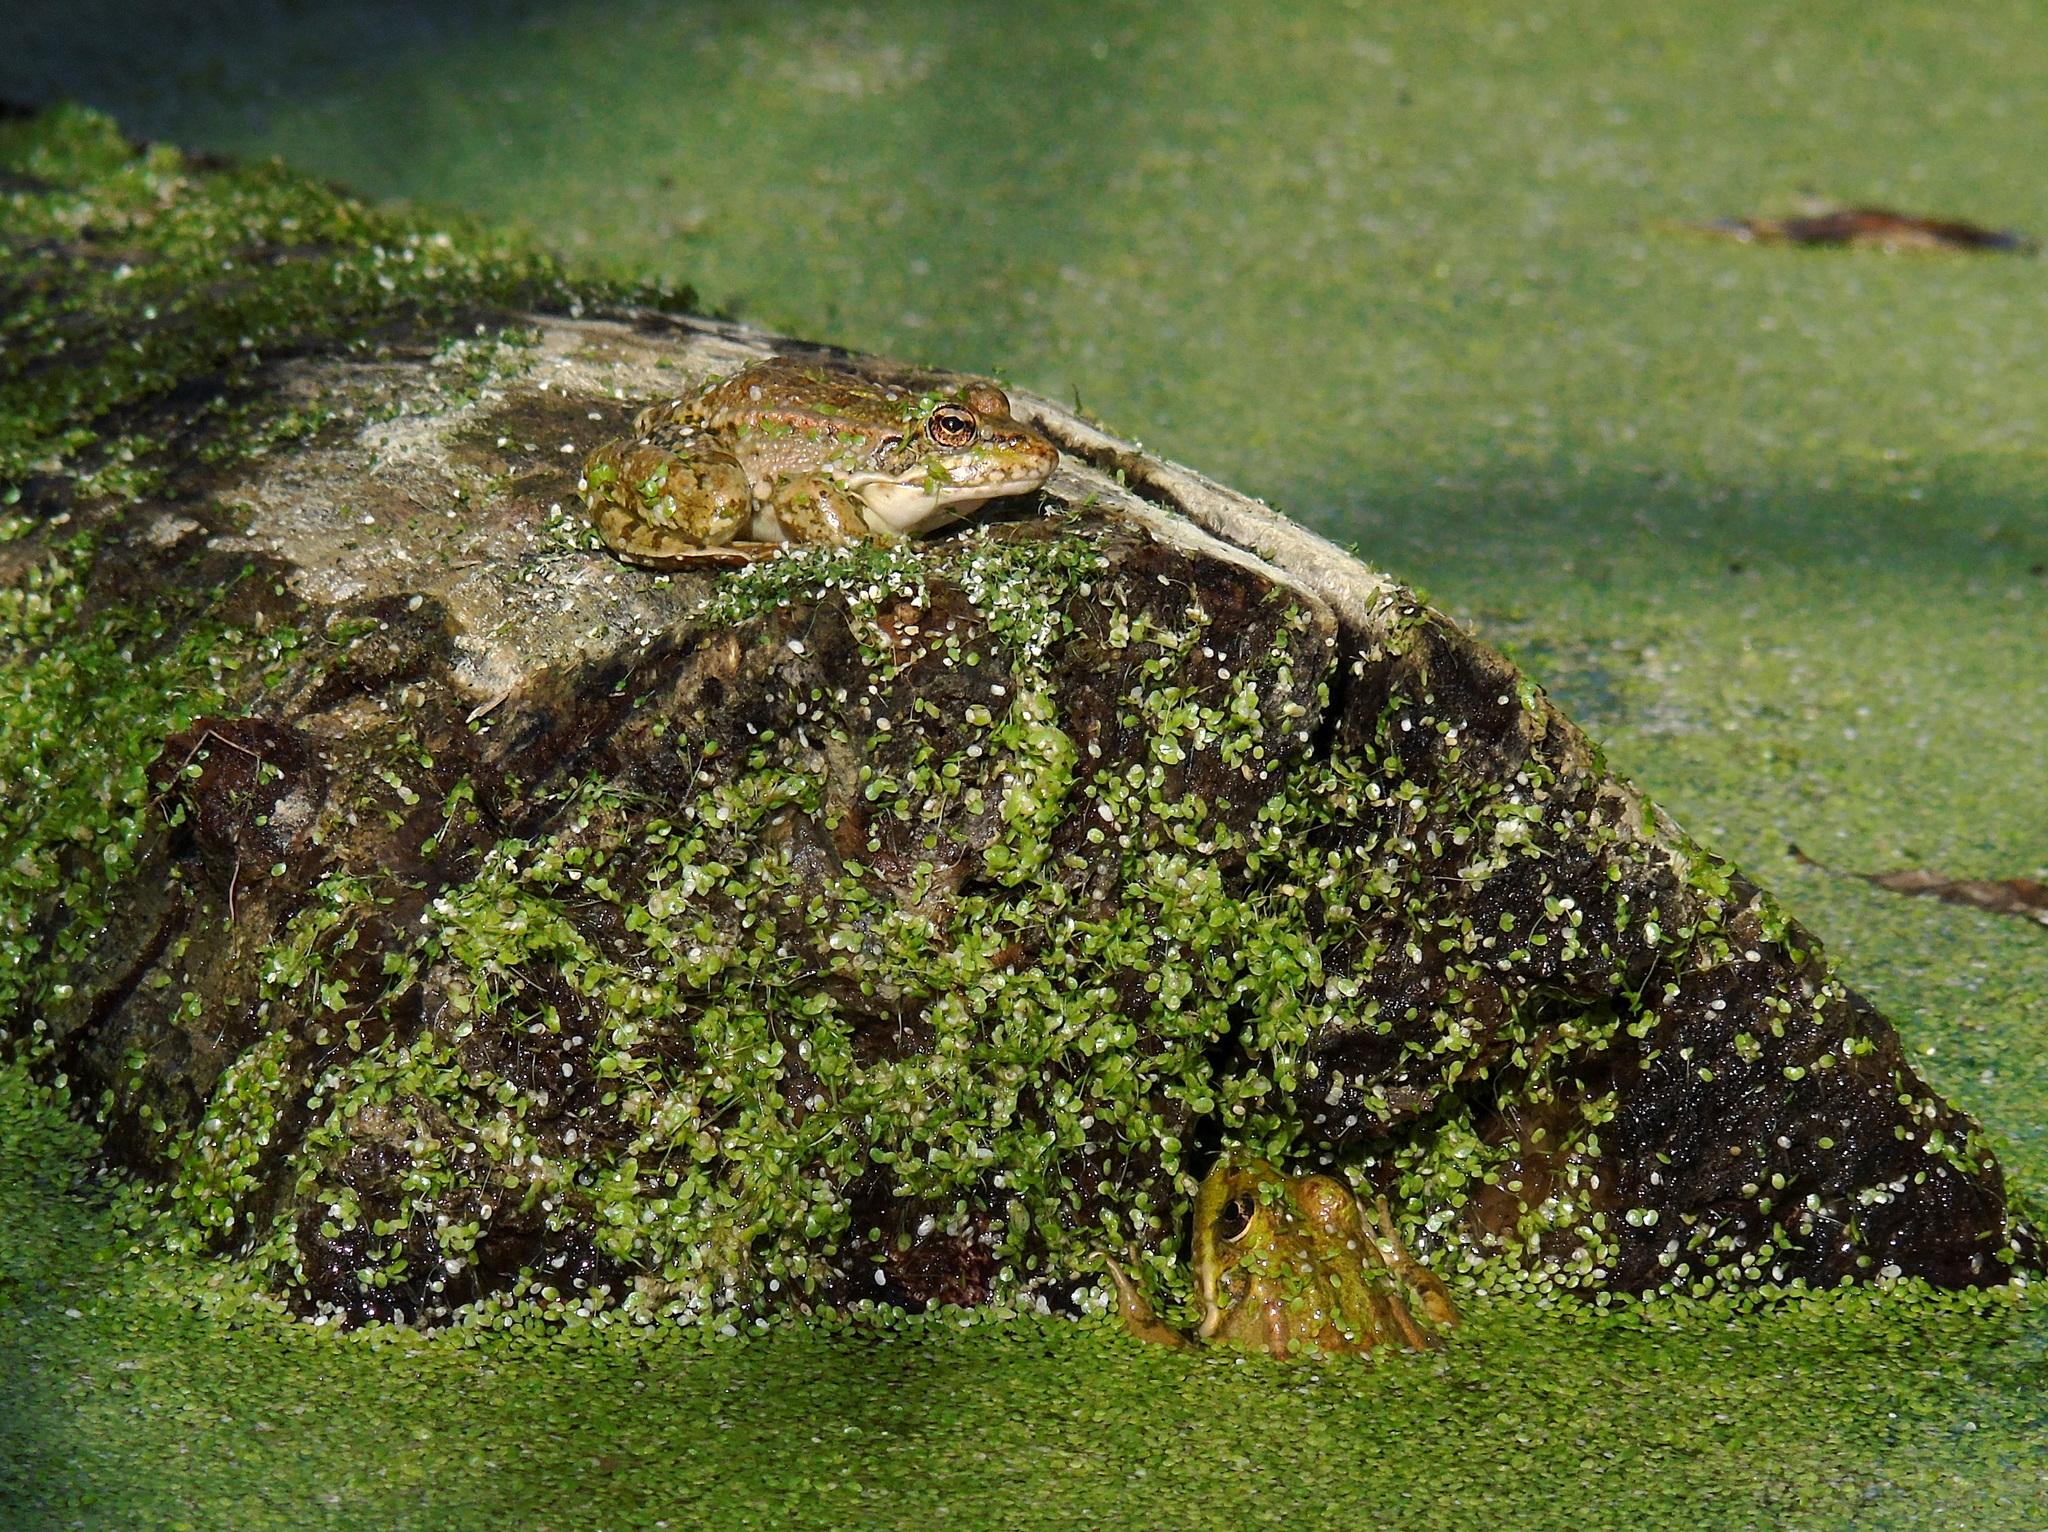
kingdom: Animalia
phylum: Chordata
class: Amphibia
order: Anura
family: Ranidae
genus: Pelophylax
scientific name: Pelophylax ridibundus
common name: Marsh frog
